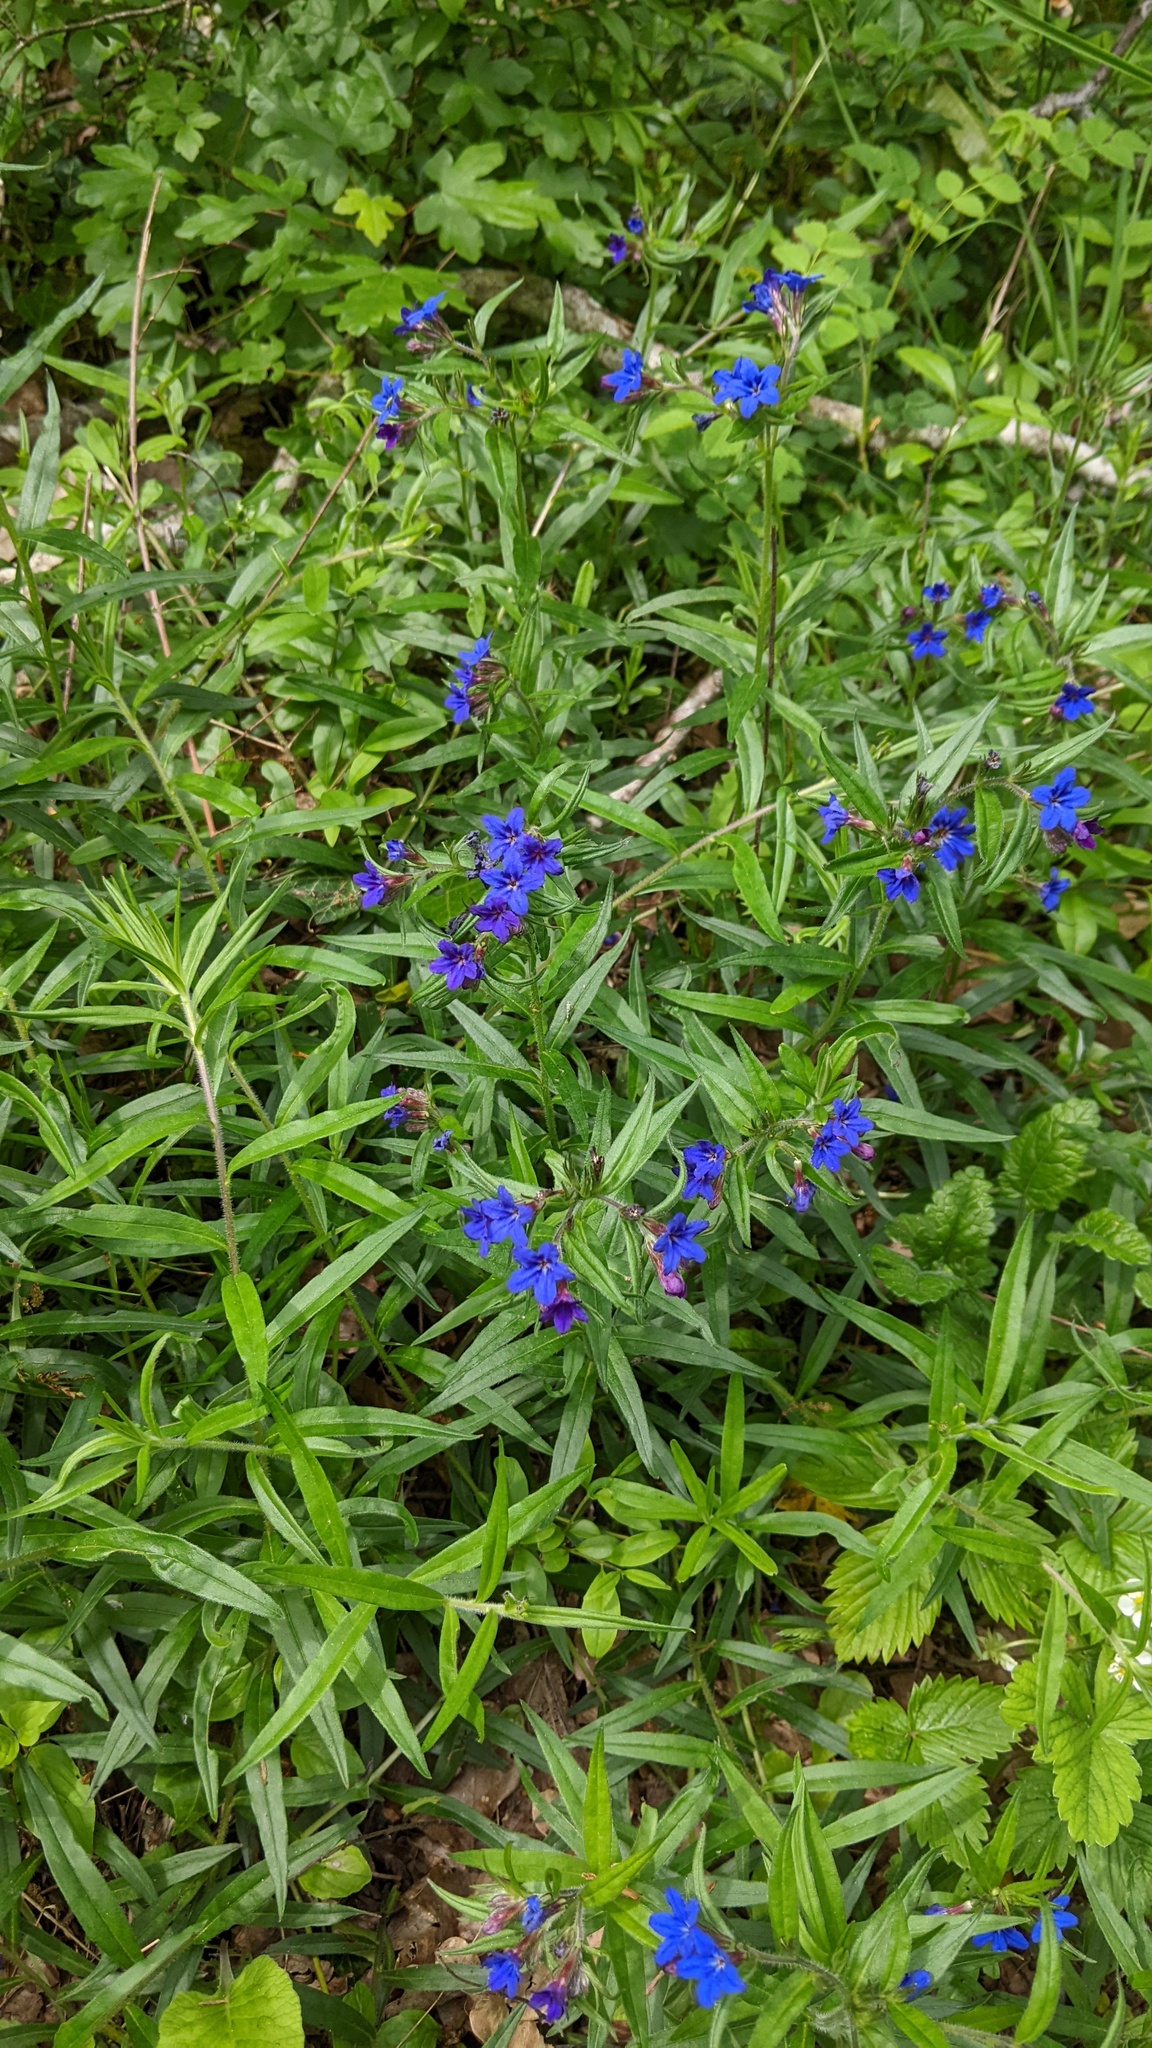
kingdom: Plantae
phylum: Tracheophyta
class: Magnoliopsida
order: Boraginales
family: Boraginaceae
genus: Aegonychon
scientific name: Aegonychon purpurocaeruleum
